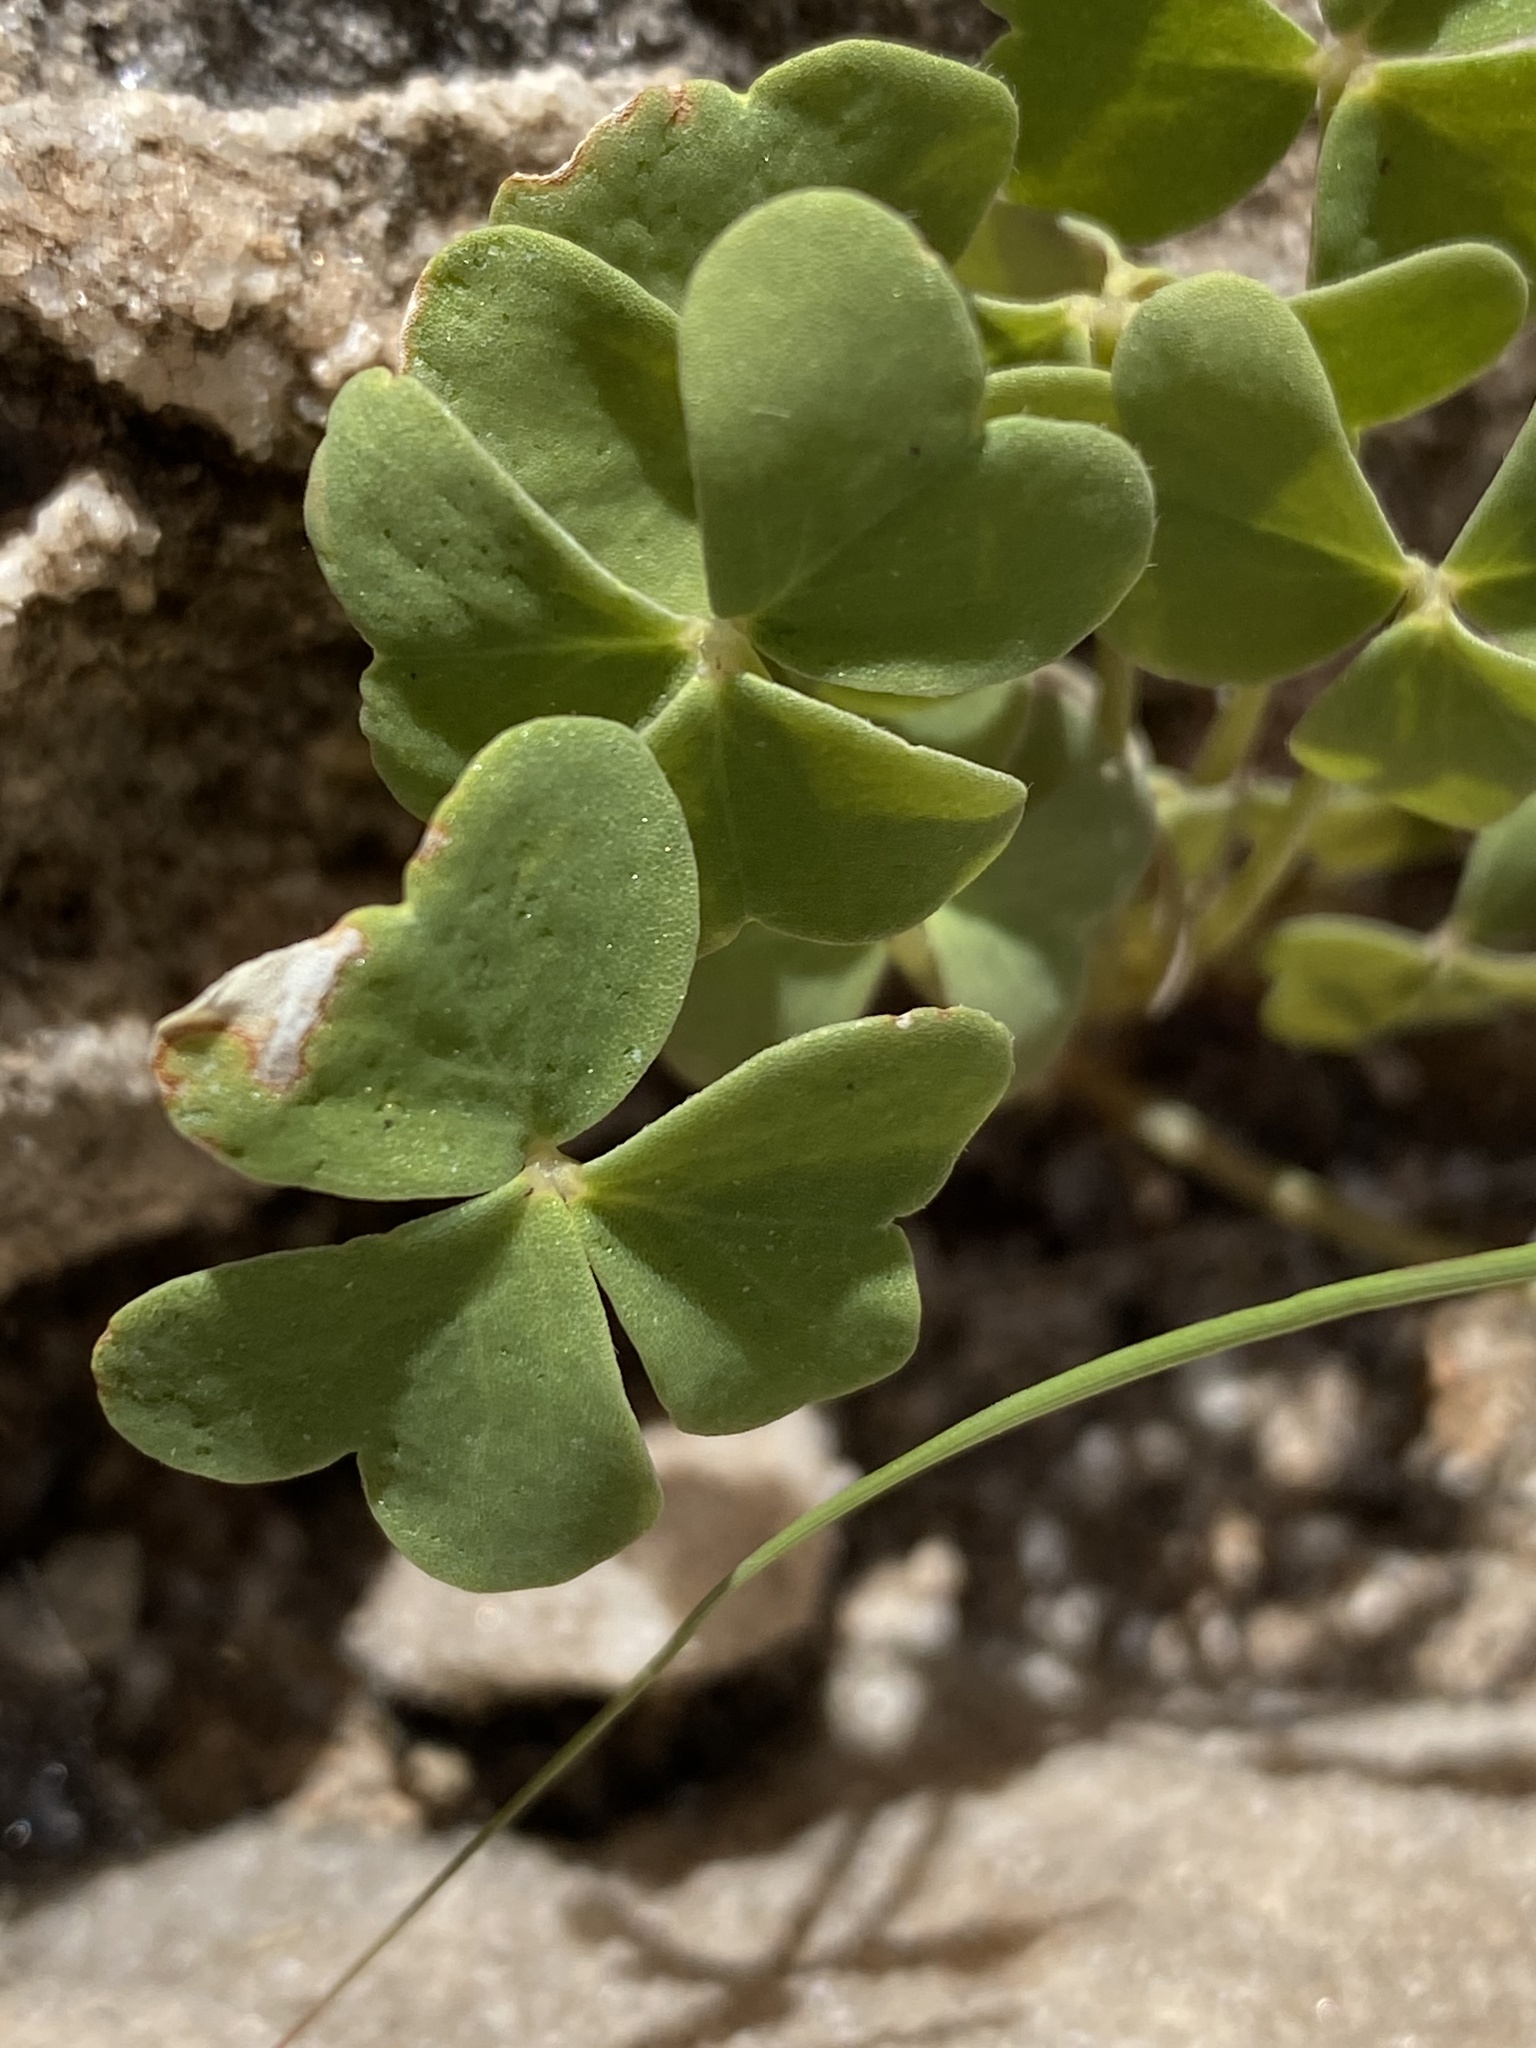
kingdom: Plantae
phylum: Tracheophyta
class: Magnoliopsida
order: Oxalidales
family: Oxalidaceae
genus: Oxalis
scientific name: Oxalis purpurascens
